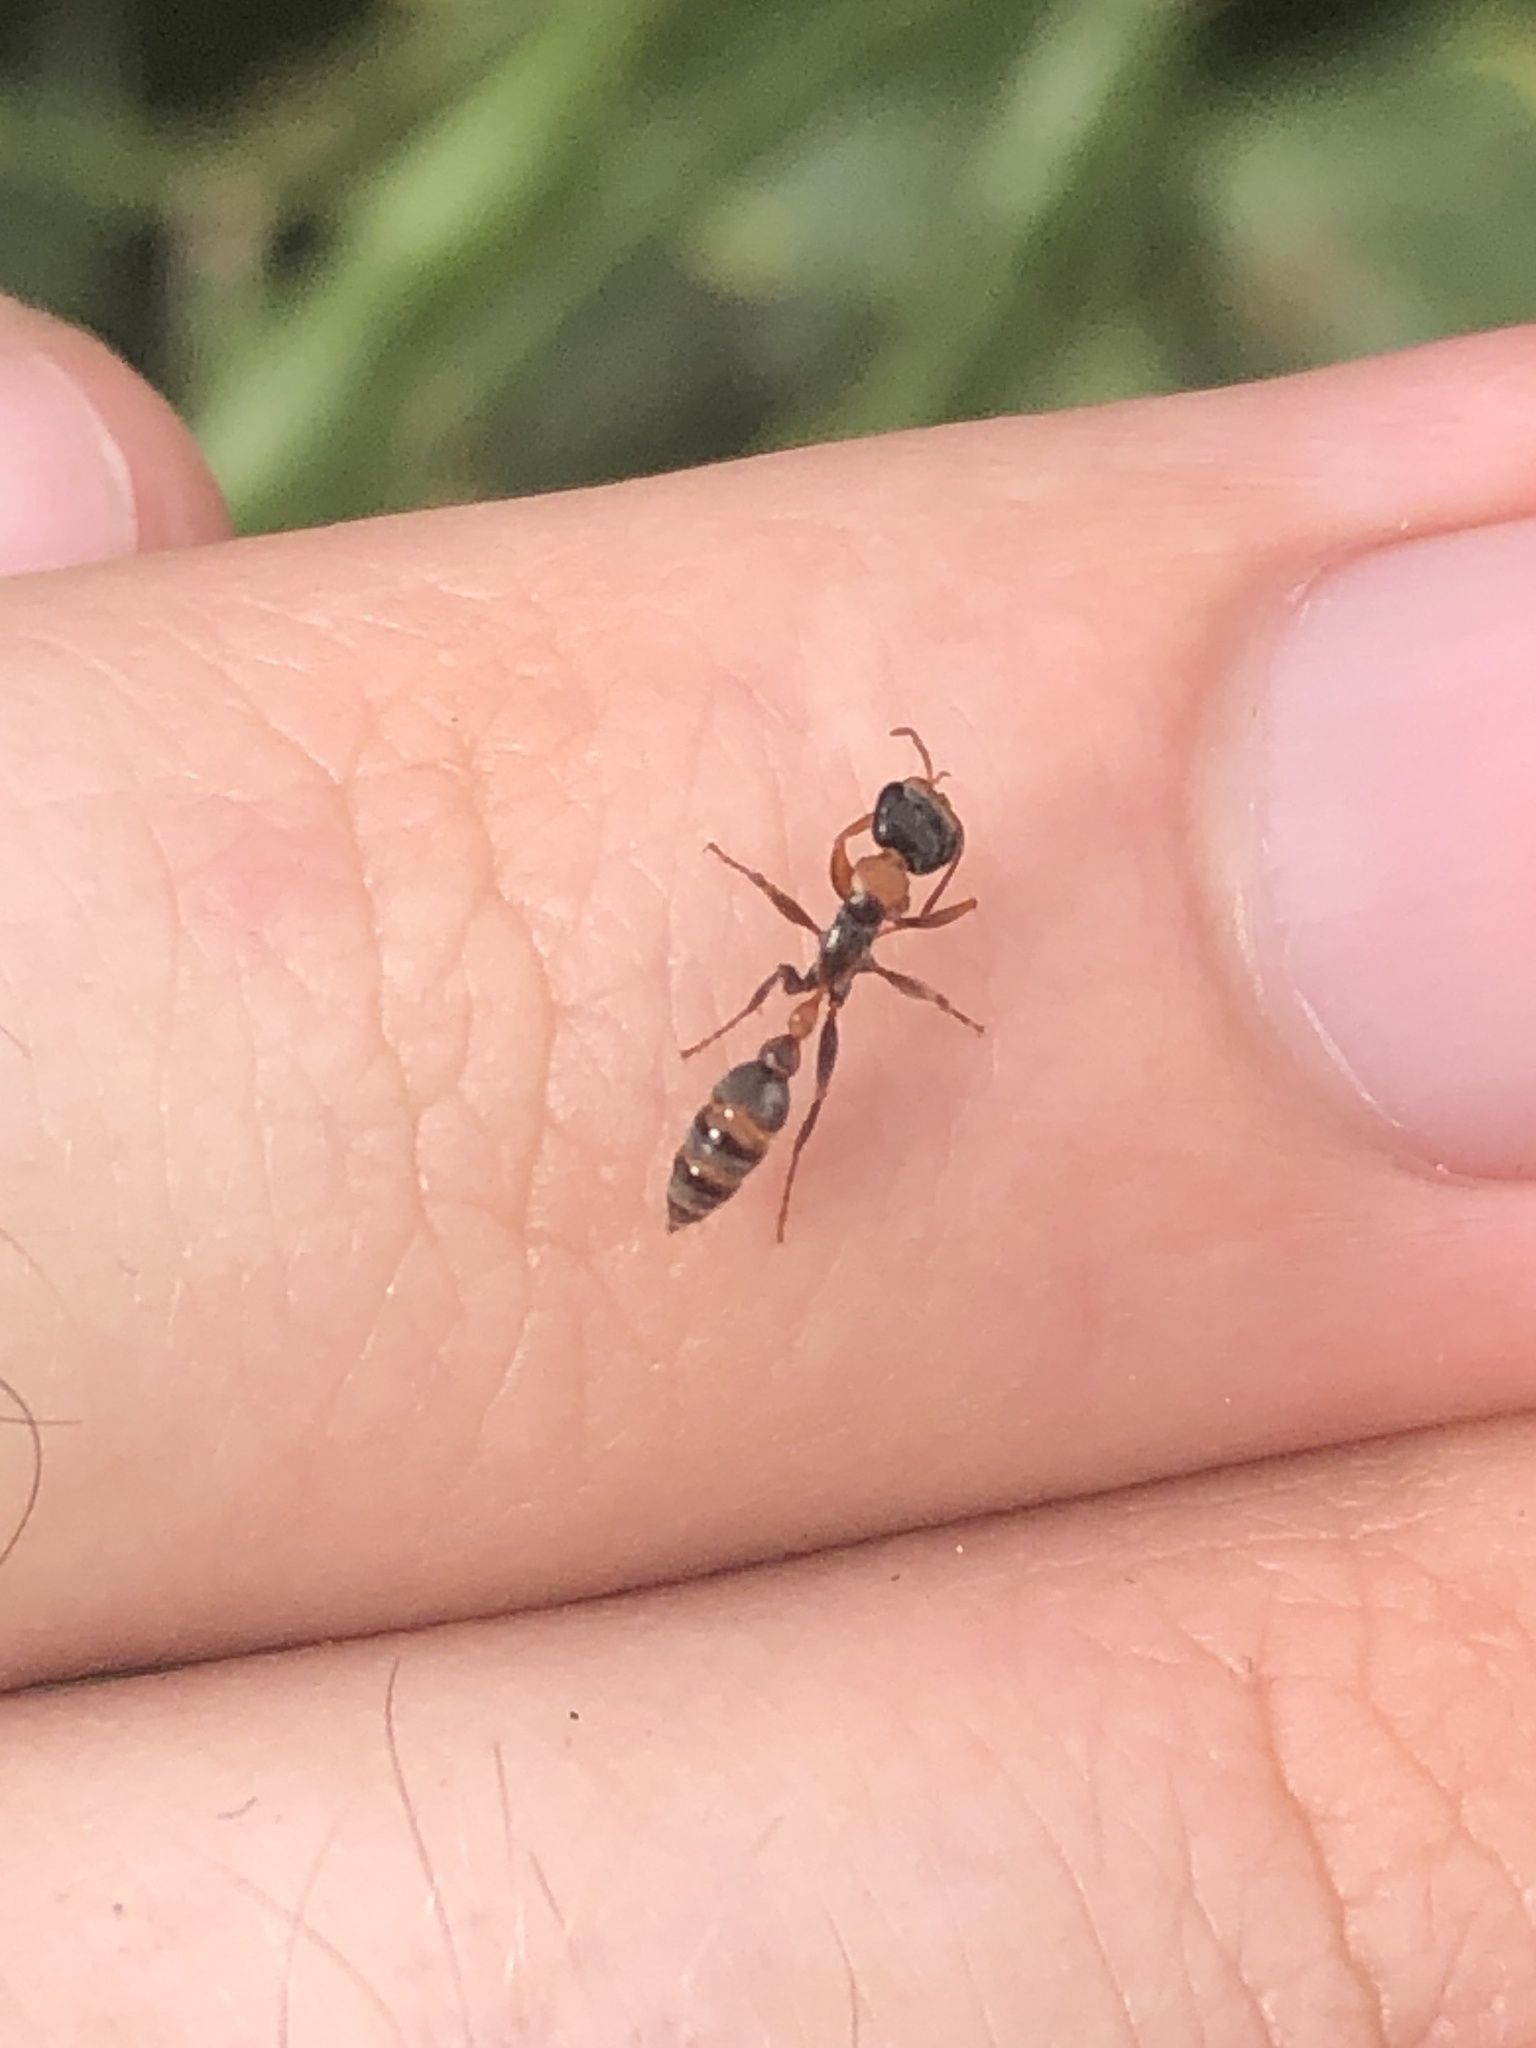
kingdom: Animalia
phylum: Arthropoda
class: Insecta
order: Hymenoptera
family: Formicidae
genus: Pseudomyrmex
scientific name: Pseudomyrmex gracilis
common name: Graceful twig ant
